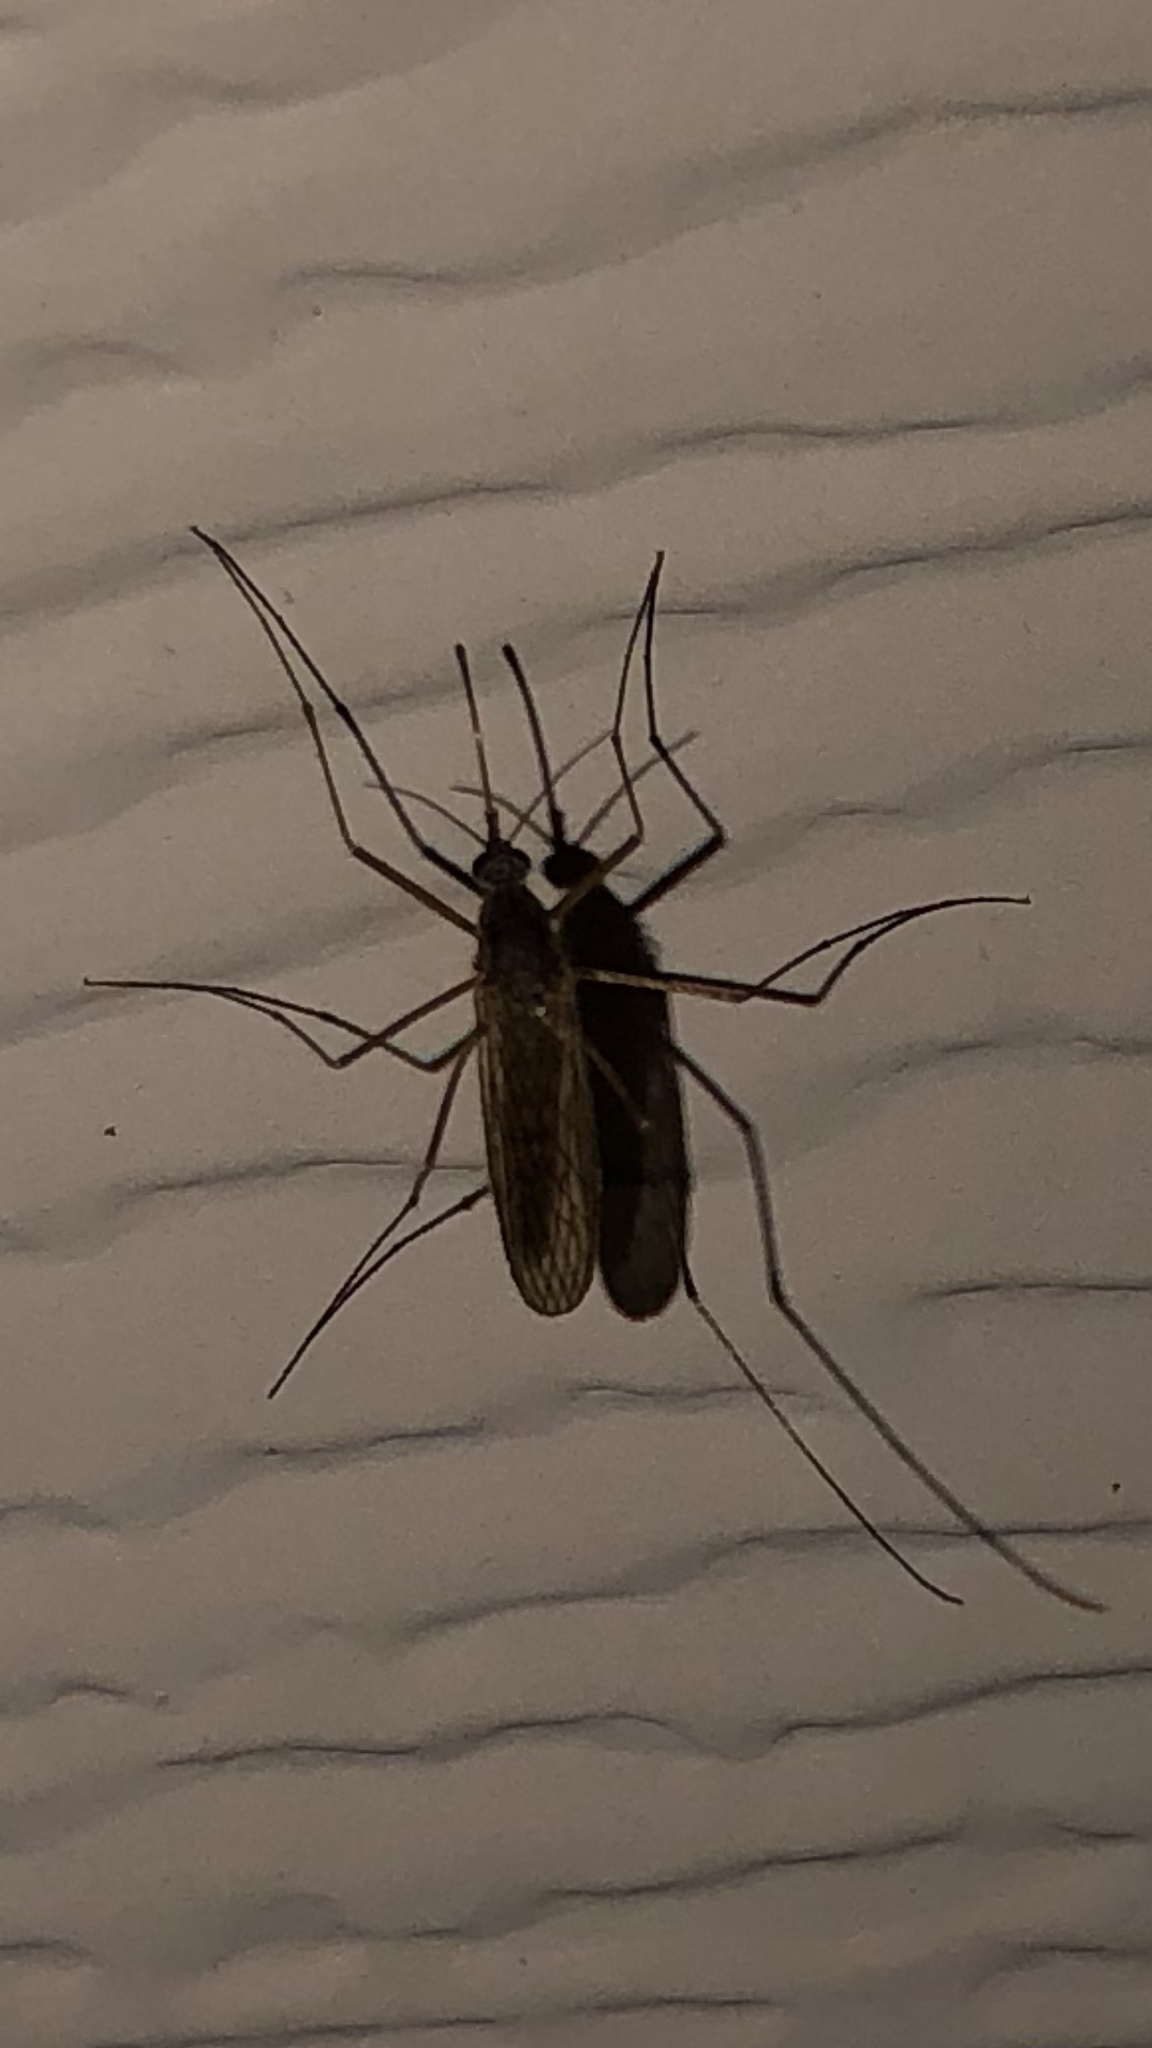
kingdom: Animalia
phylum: Arthropoda
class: Insecta
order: Diptera
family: Culicidae
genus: Culiseta
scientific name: Culiseta inornata
